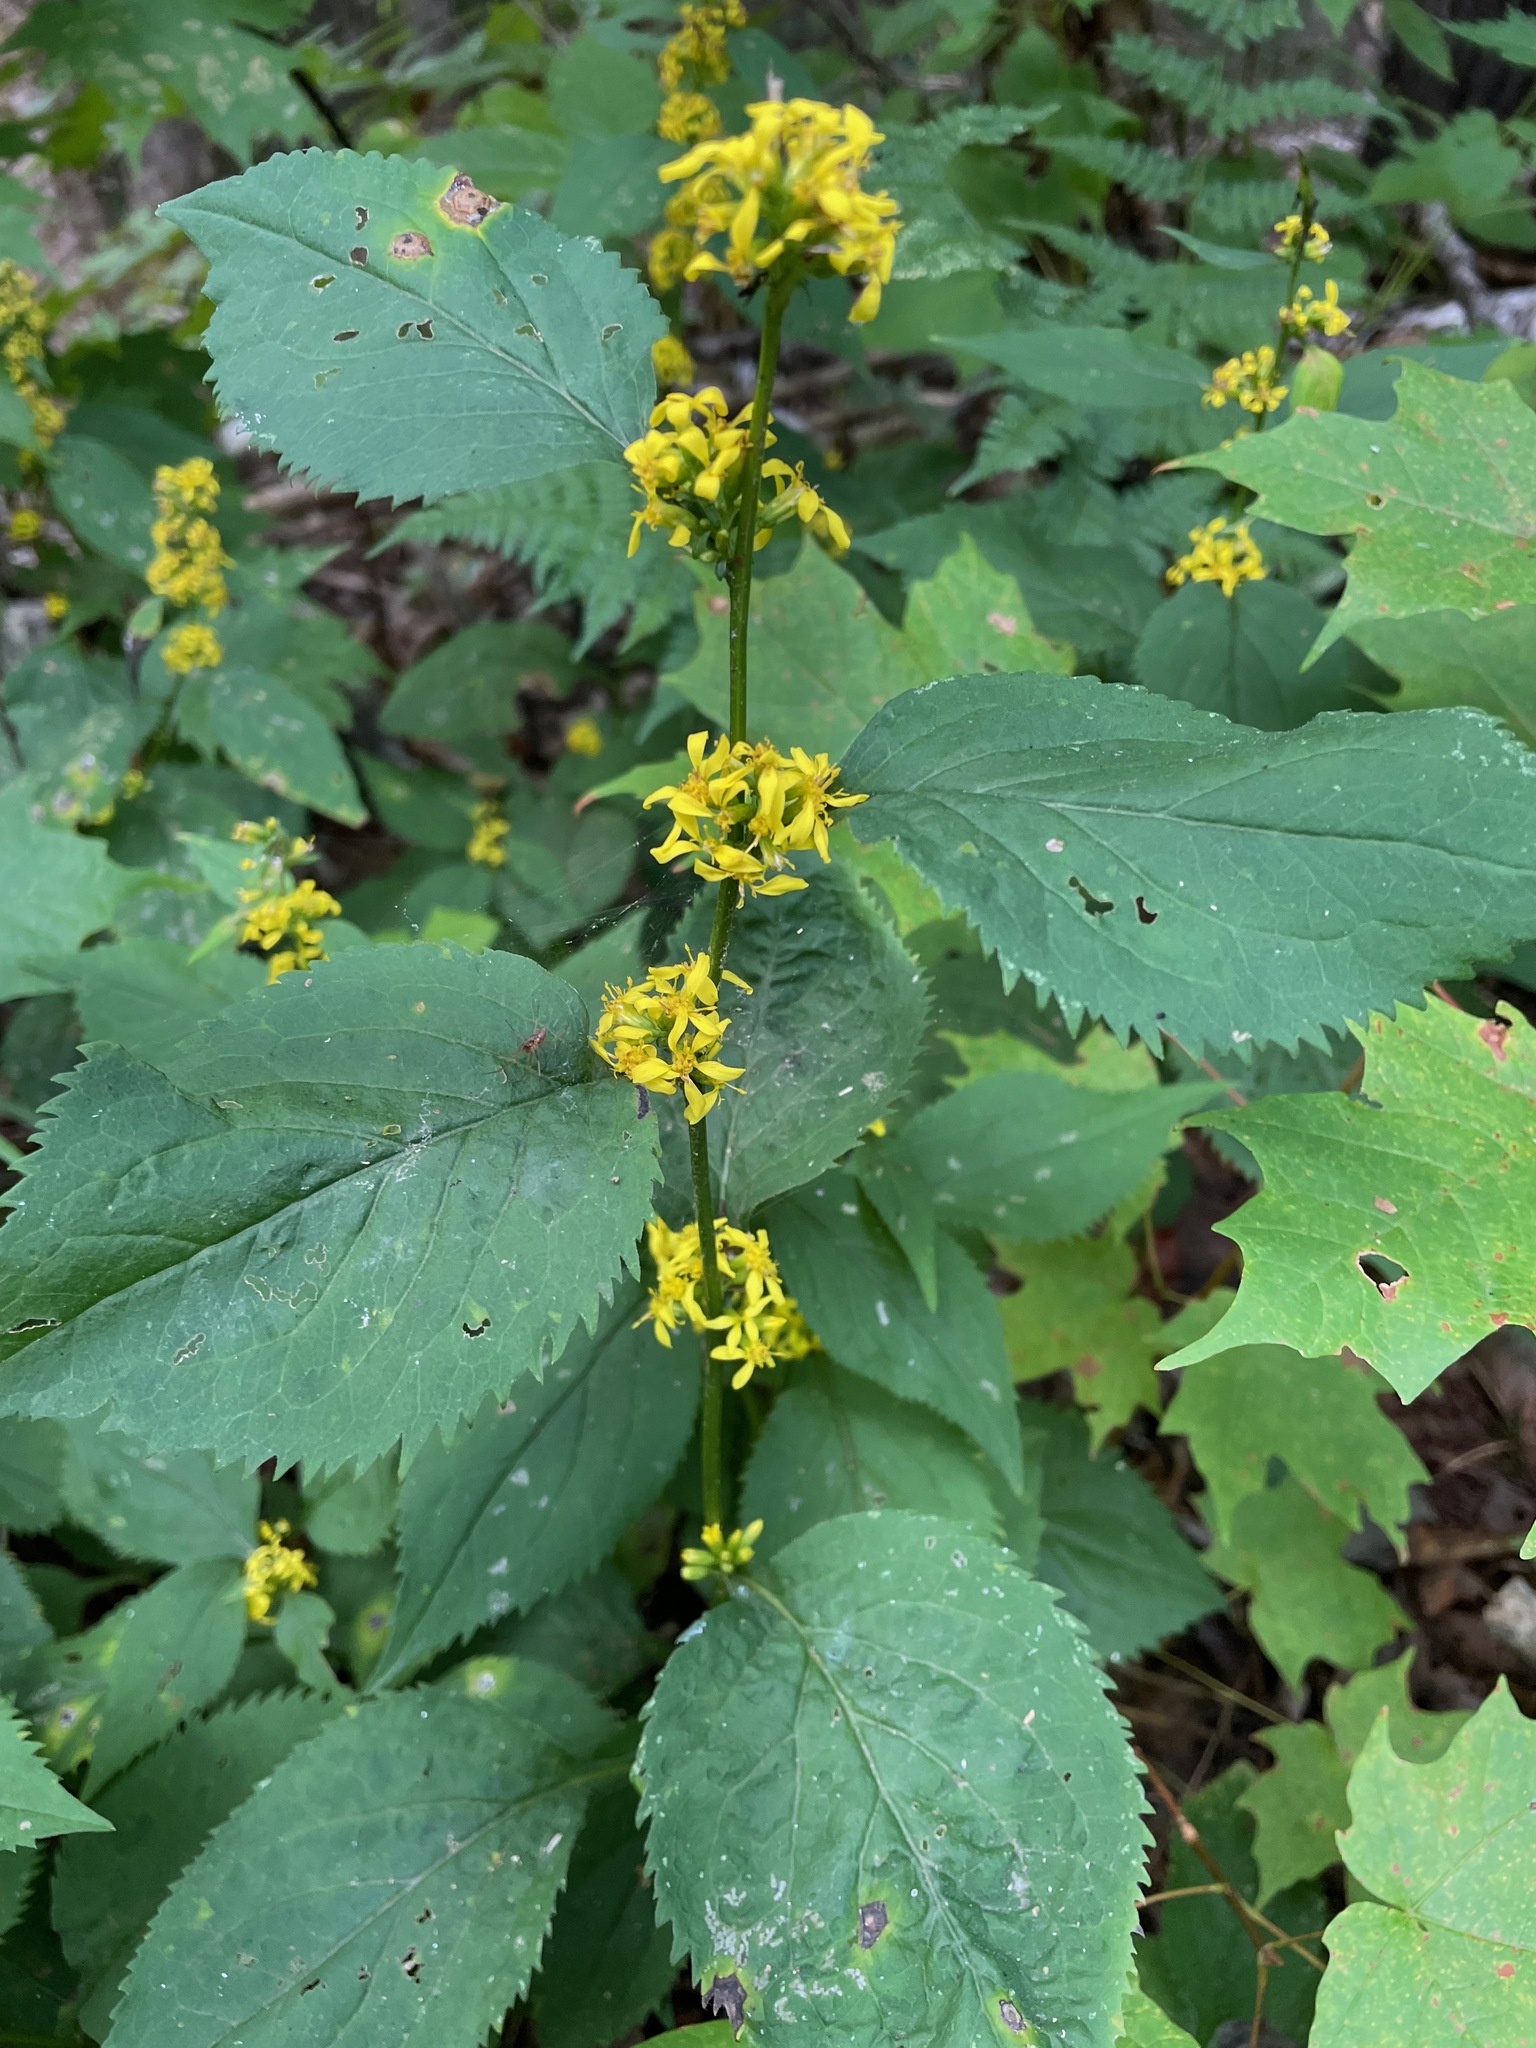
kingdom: Plantae
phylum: Tracheophyta
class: Magnoliopsida
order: Asterales
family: Asteraceae
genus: Solidago
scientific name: Solidago flexicaulis
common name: Zig-zag goldenrod
